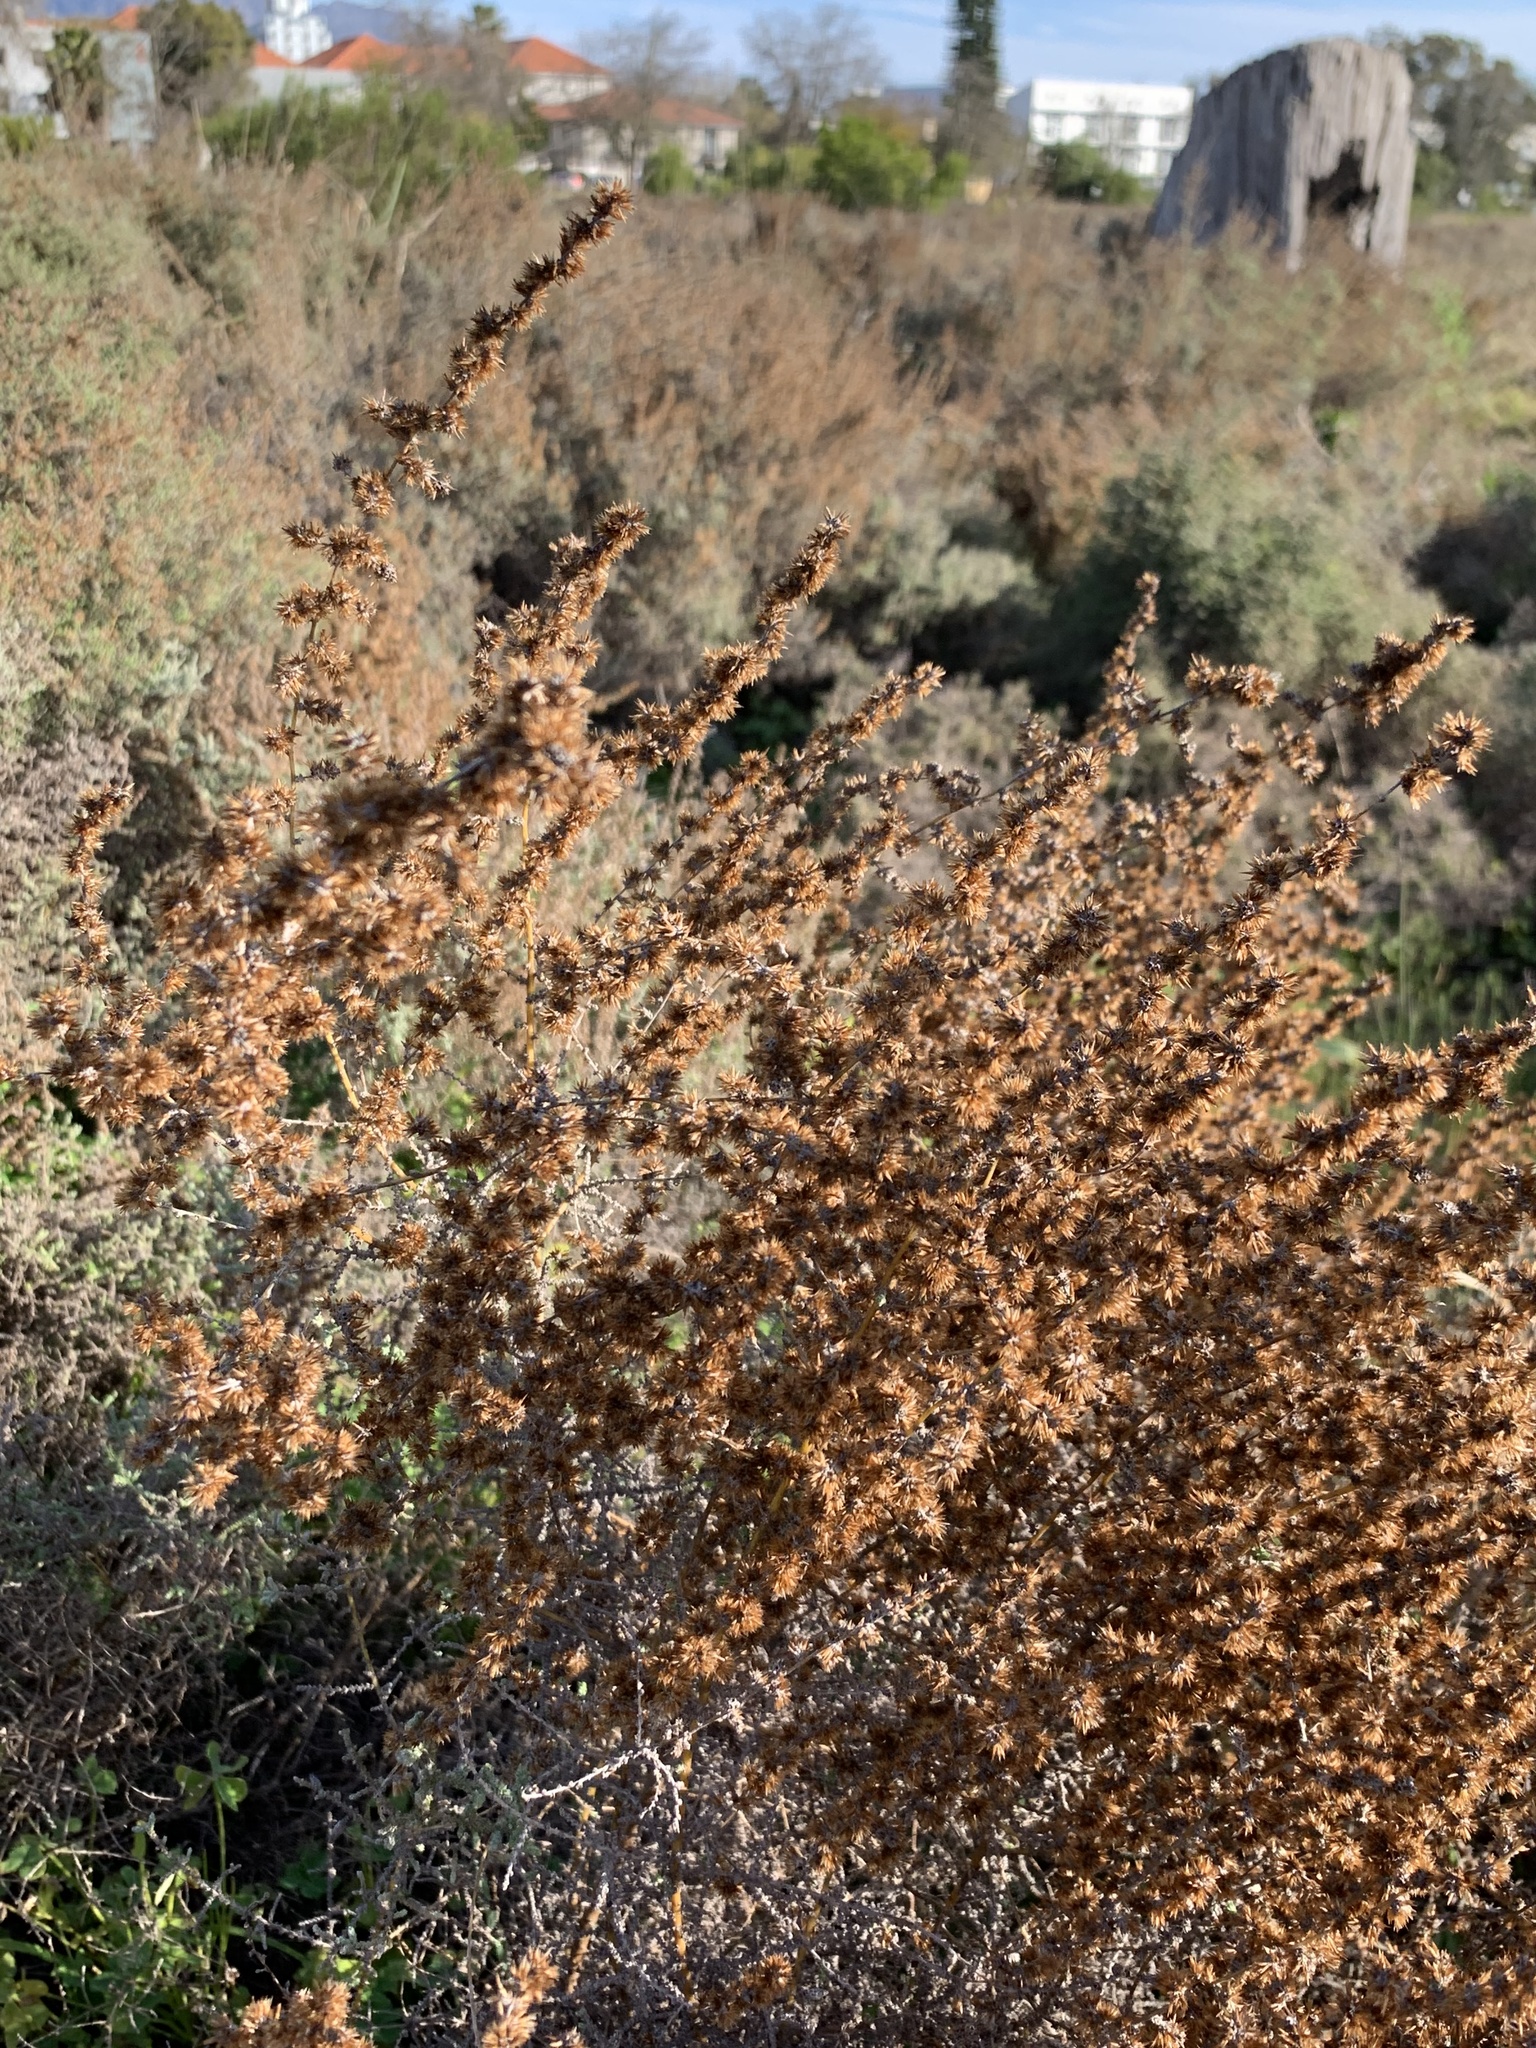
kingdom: Plantae
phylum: Tracheophyta
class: Magnoliopsida
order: Asterales
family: Asteraceae
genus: Seriphium
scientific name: Seriphium plumosum
